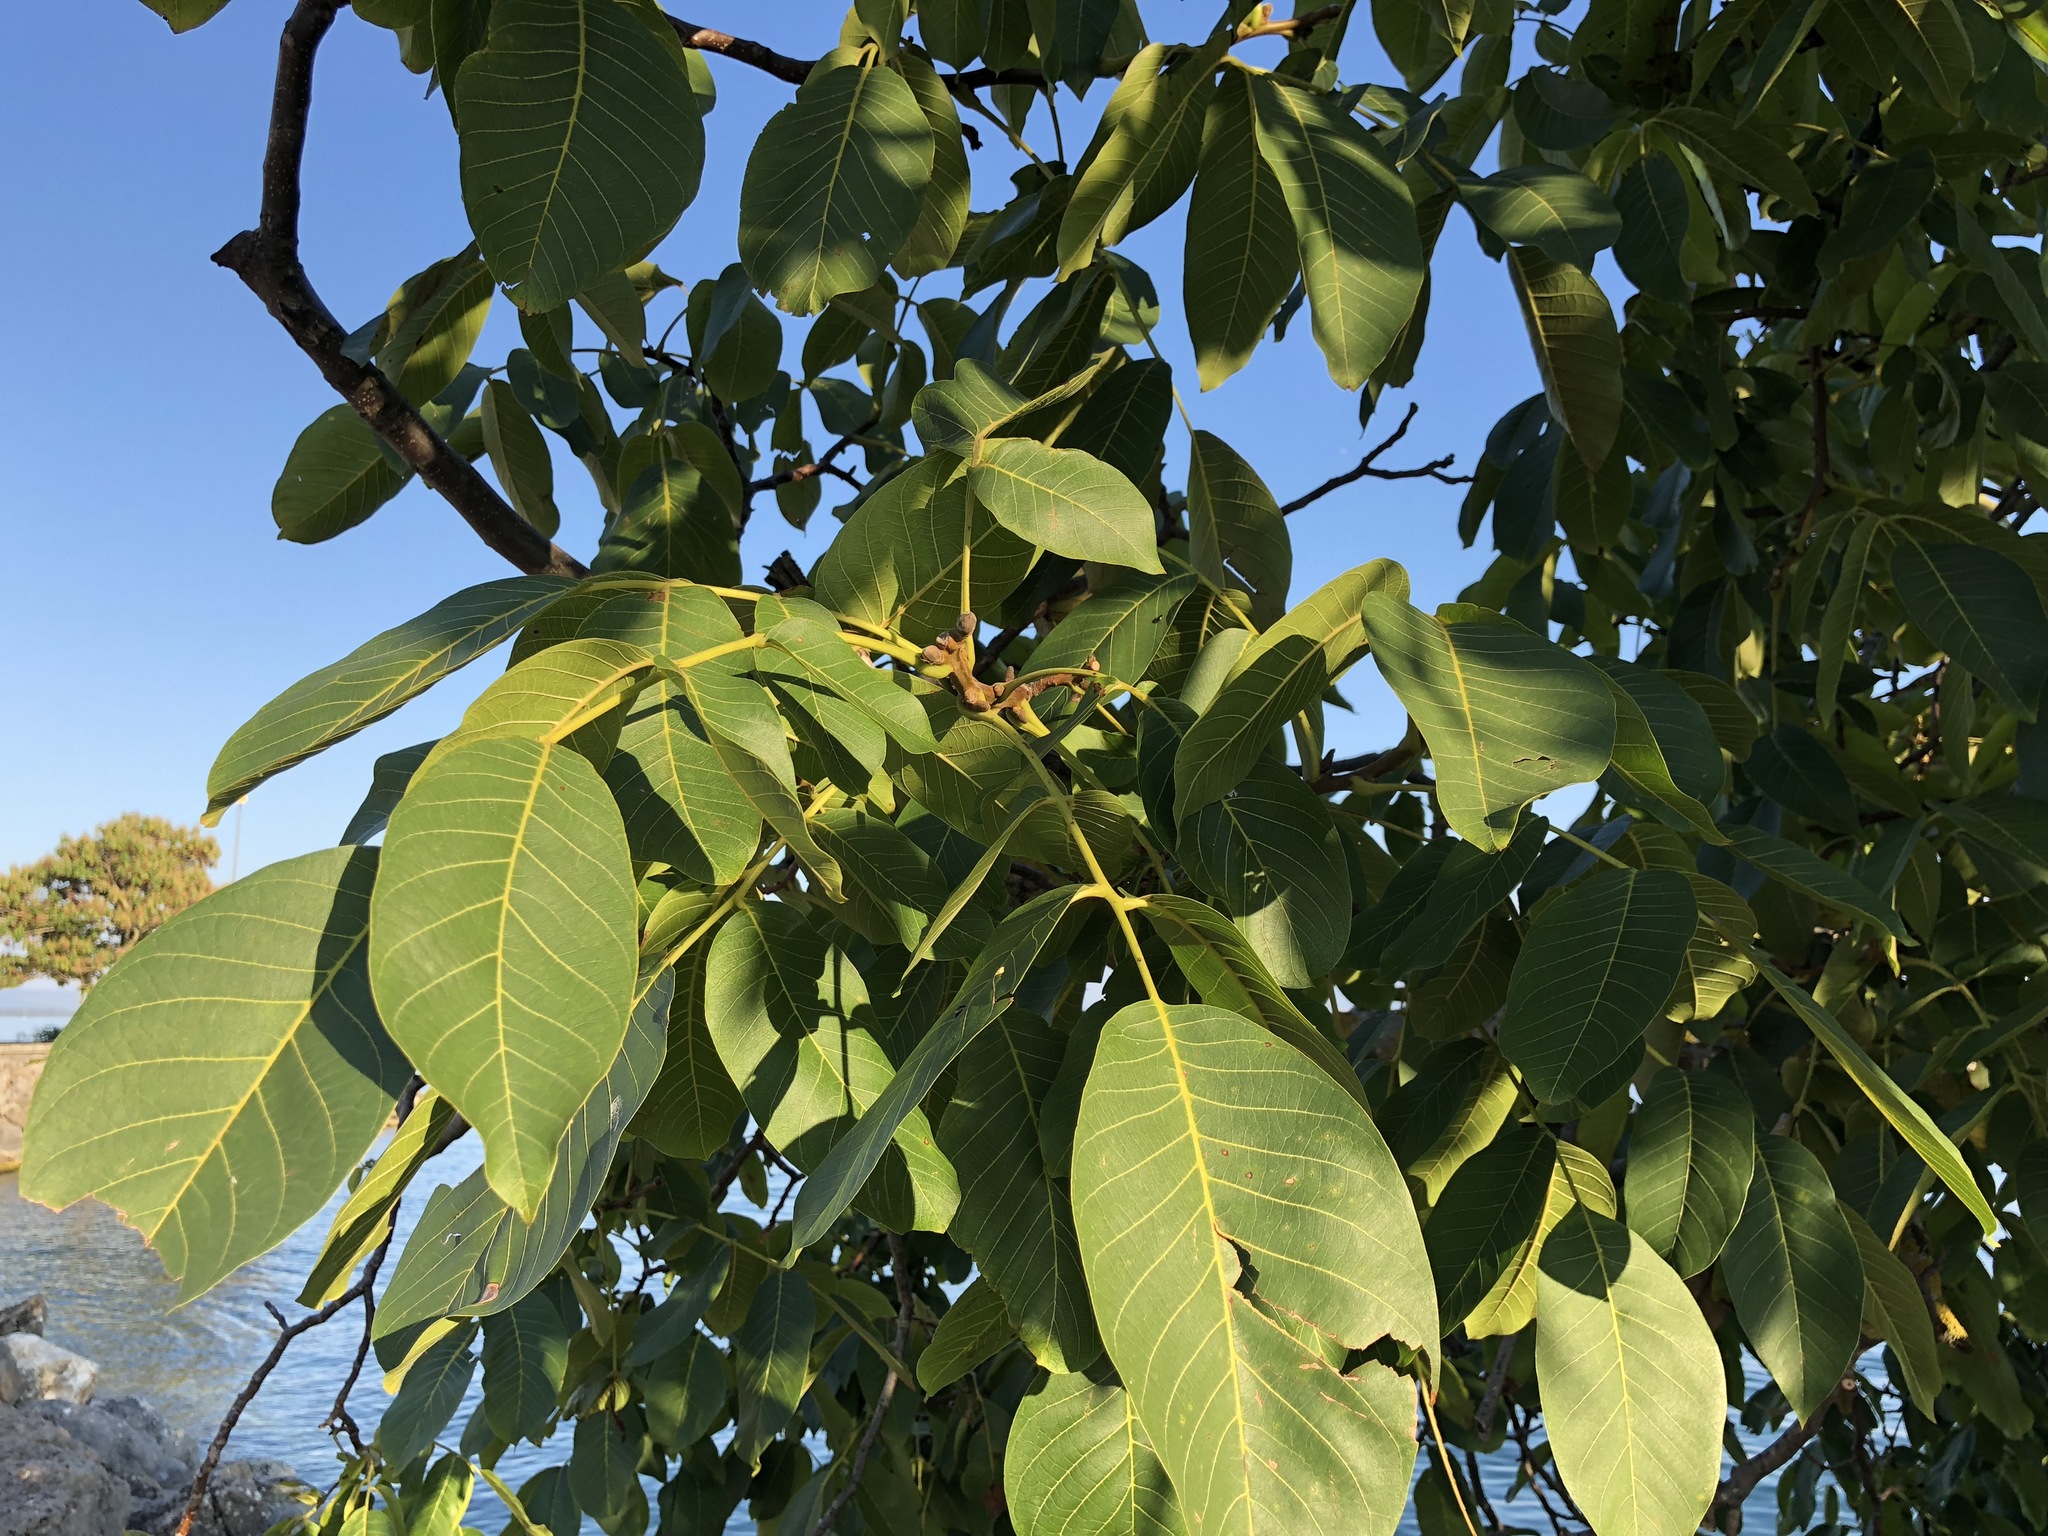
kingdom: Plantae
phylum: Tracheophyta
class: Magnoliopsida
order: Fagales
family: Juglandaceae
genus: Juglans
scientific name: Juglans regia
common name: Walnut
